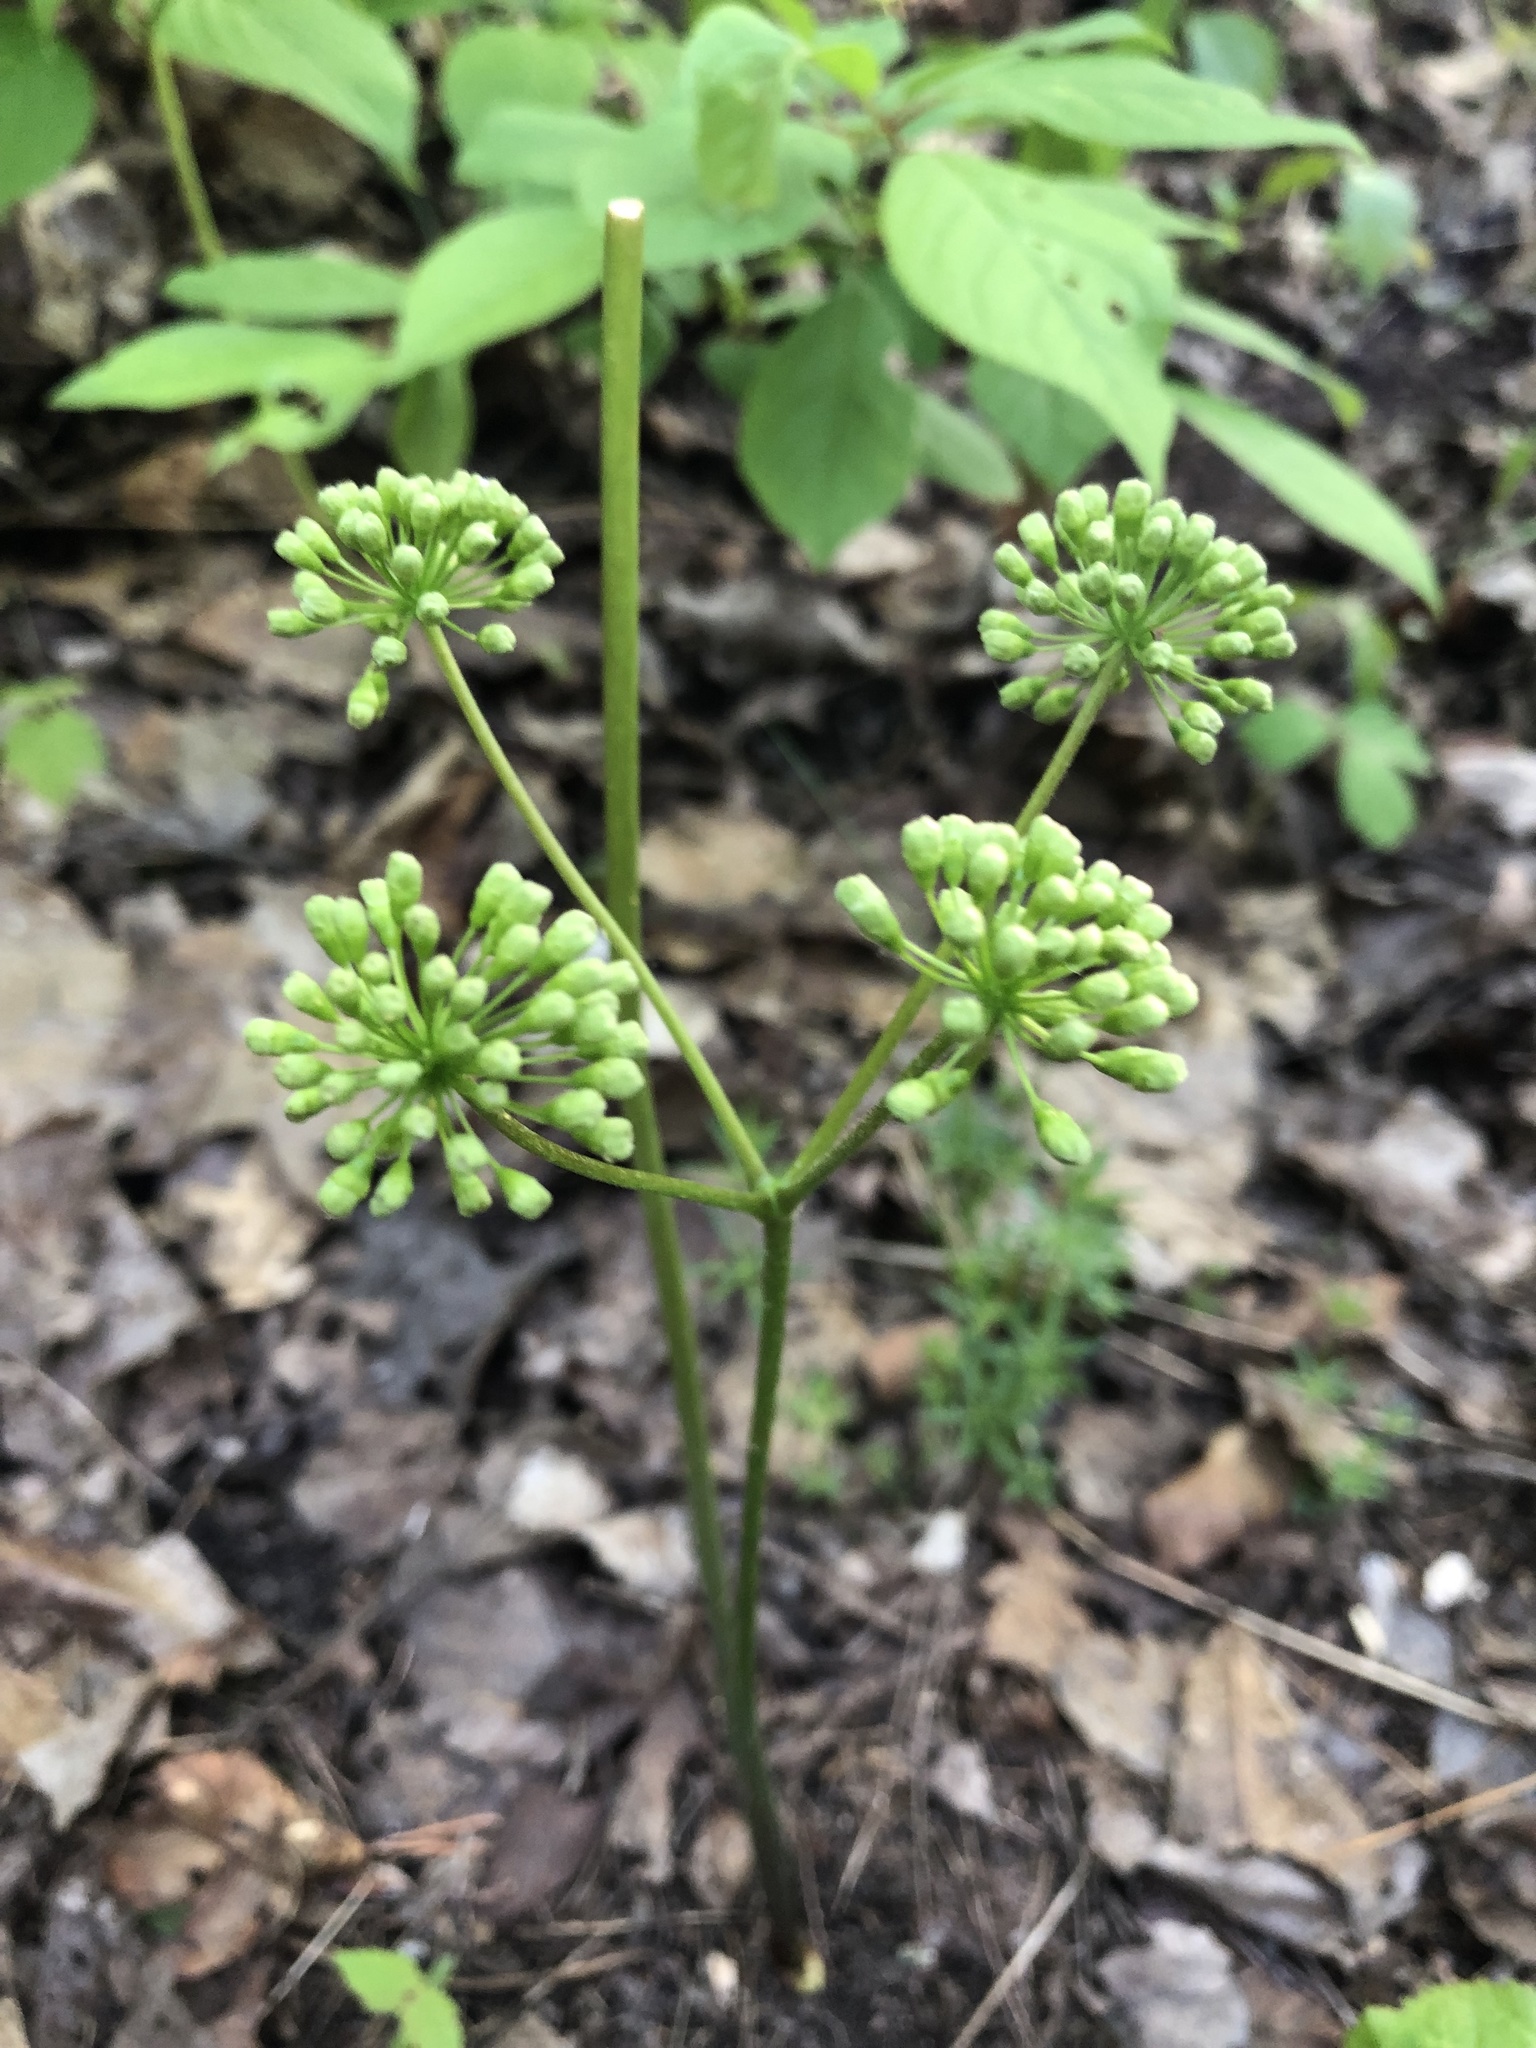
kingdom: Plantae
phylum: Tracheophyta
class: Magnoliopsida
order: Apiales
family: Araliaceae
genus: Aralia
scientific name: Aralia nudicaulis
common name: Wild sarsaparilla
